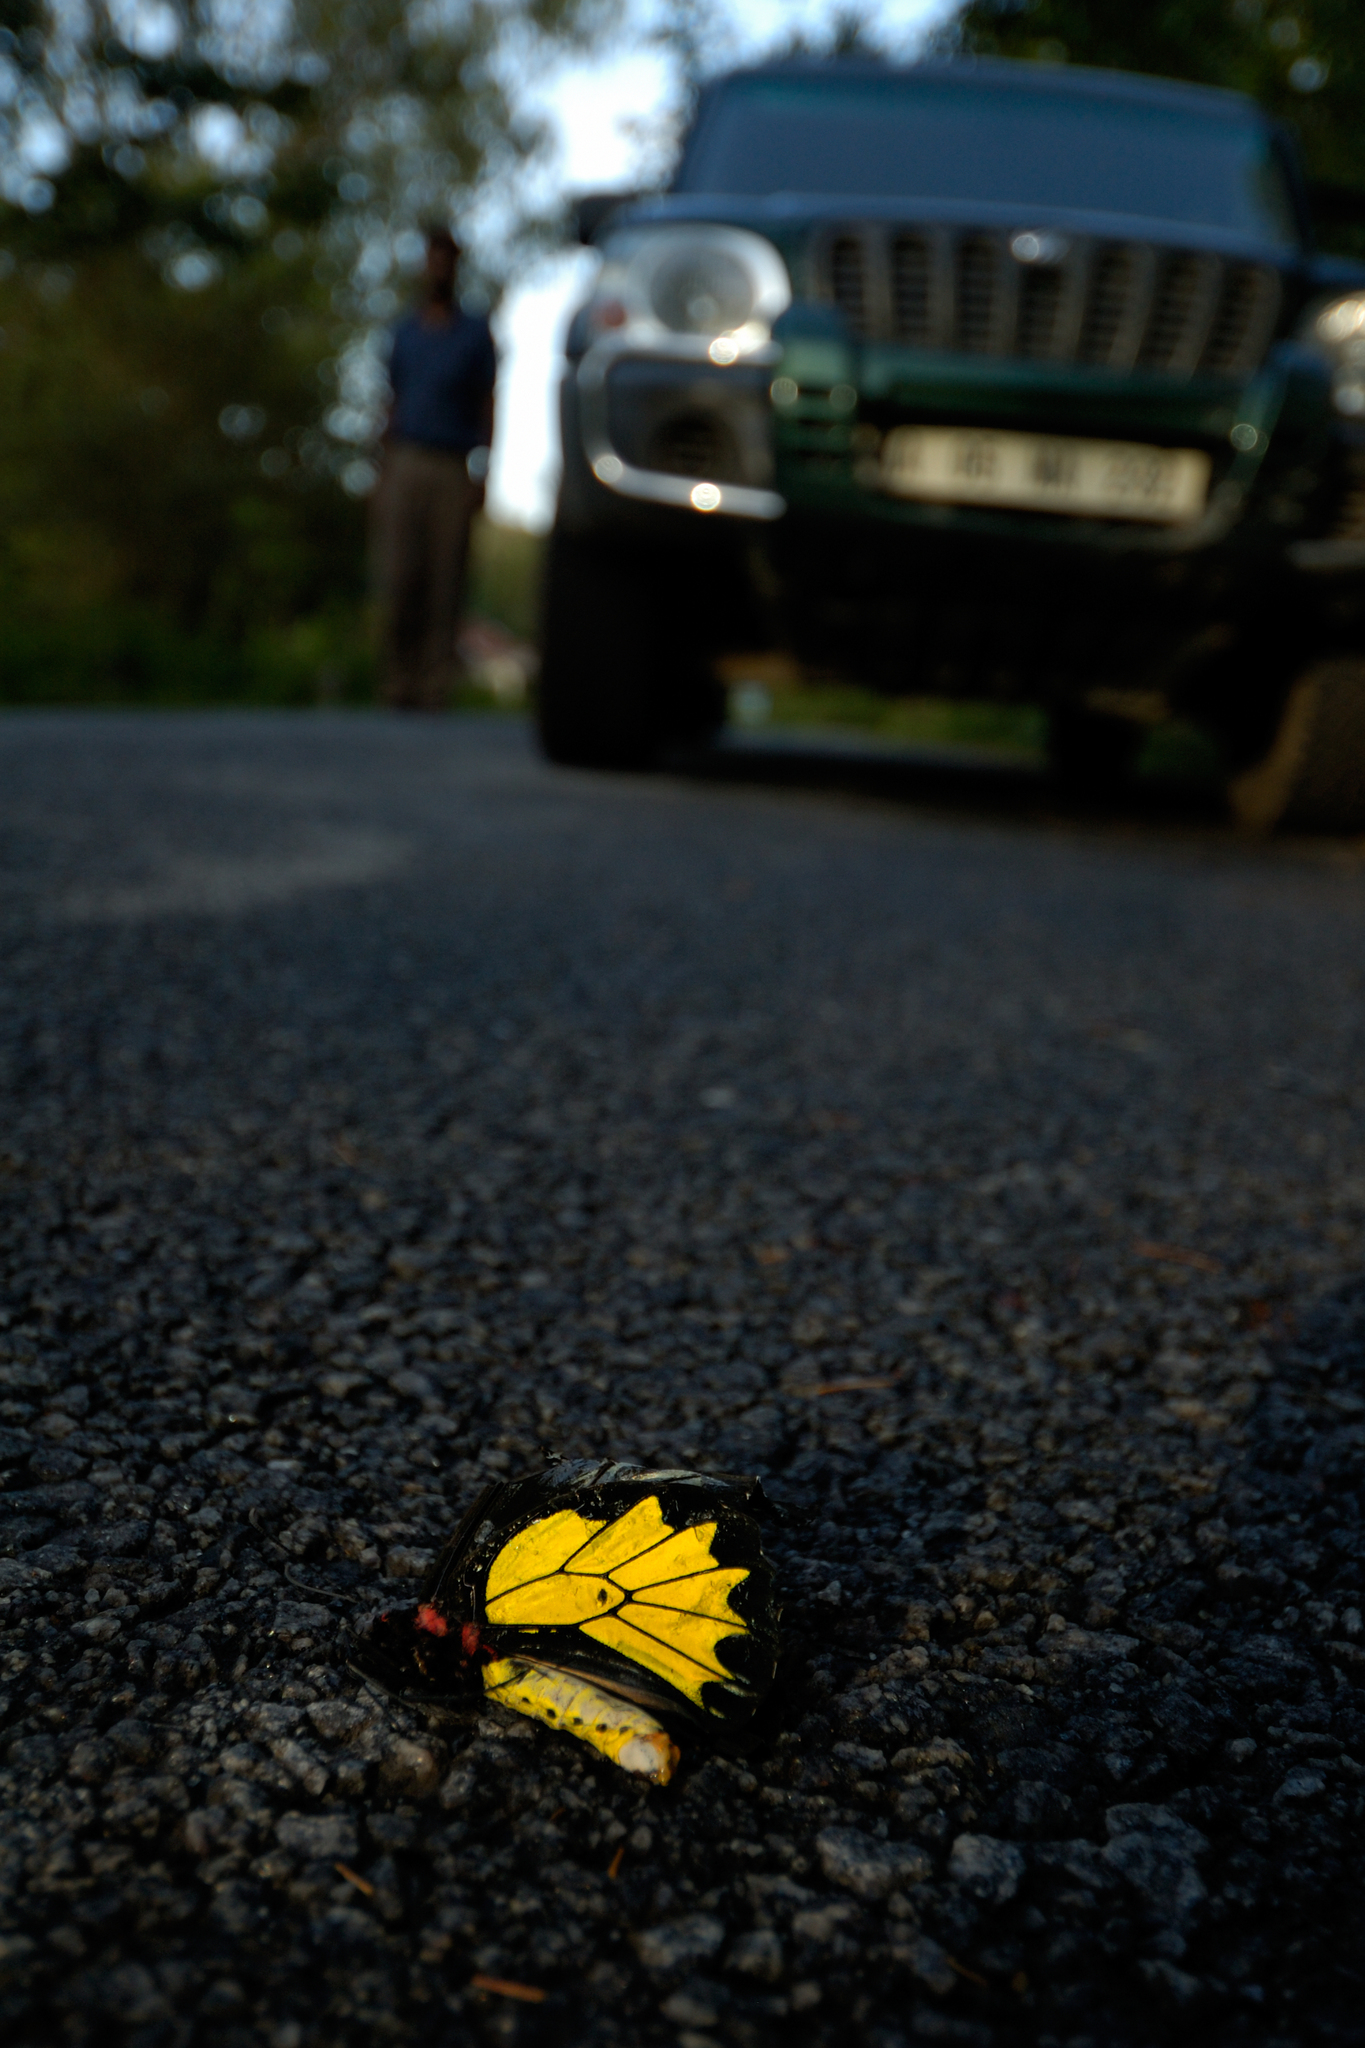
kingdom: Animalia
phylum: Arthropoda
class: Insecta
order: Lepidoptera
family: Papilionidae
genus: Troides
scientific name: Troides minos
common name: Malabar birdwing
